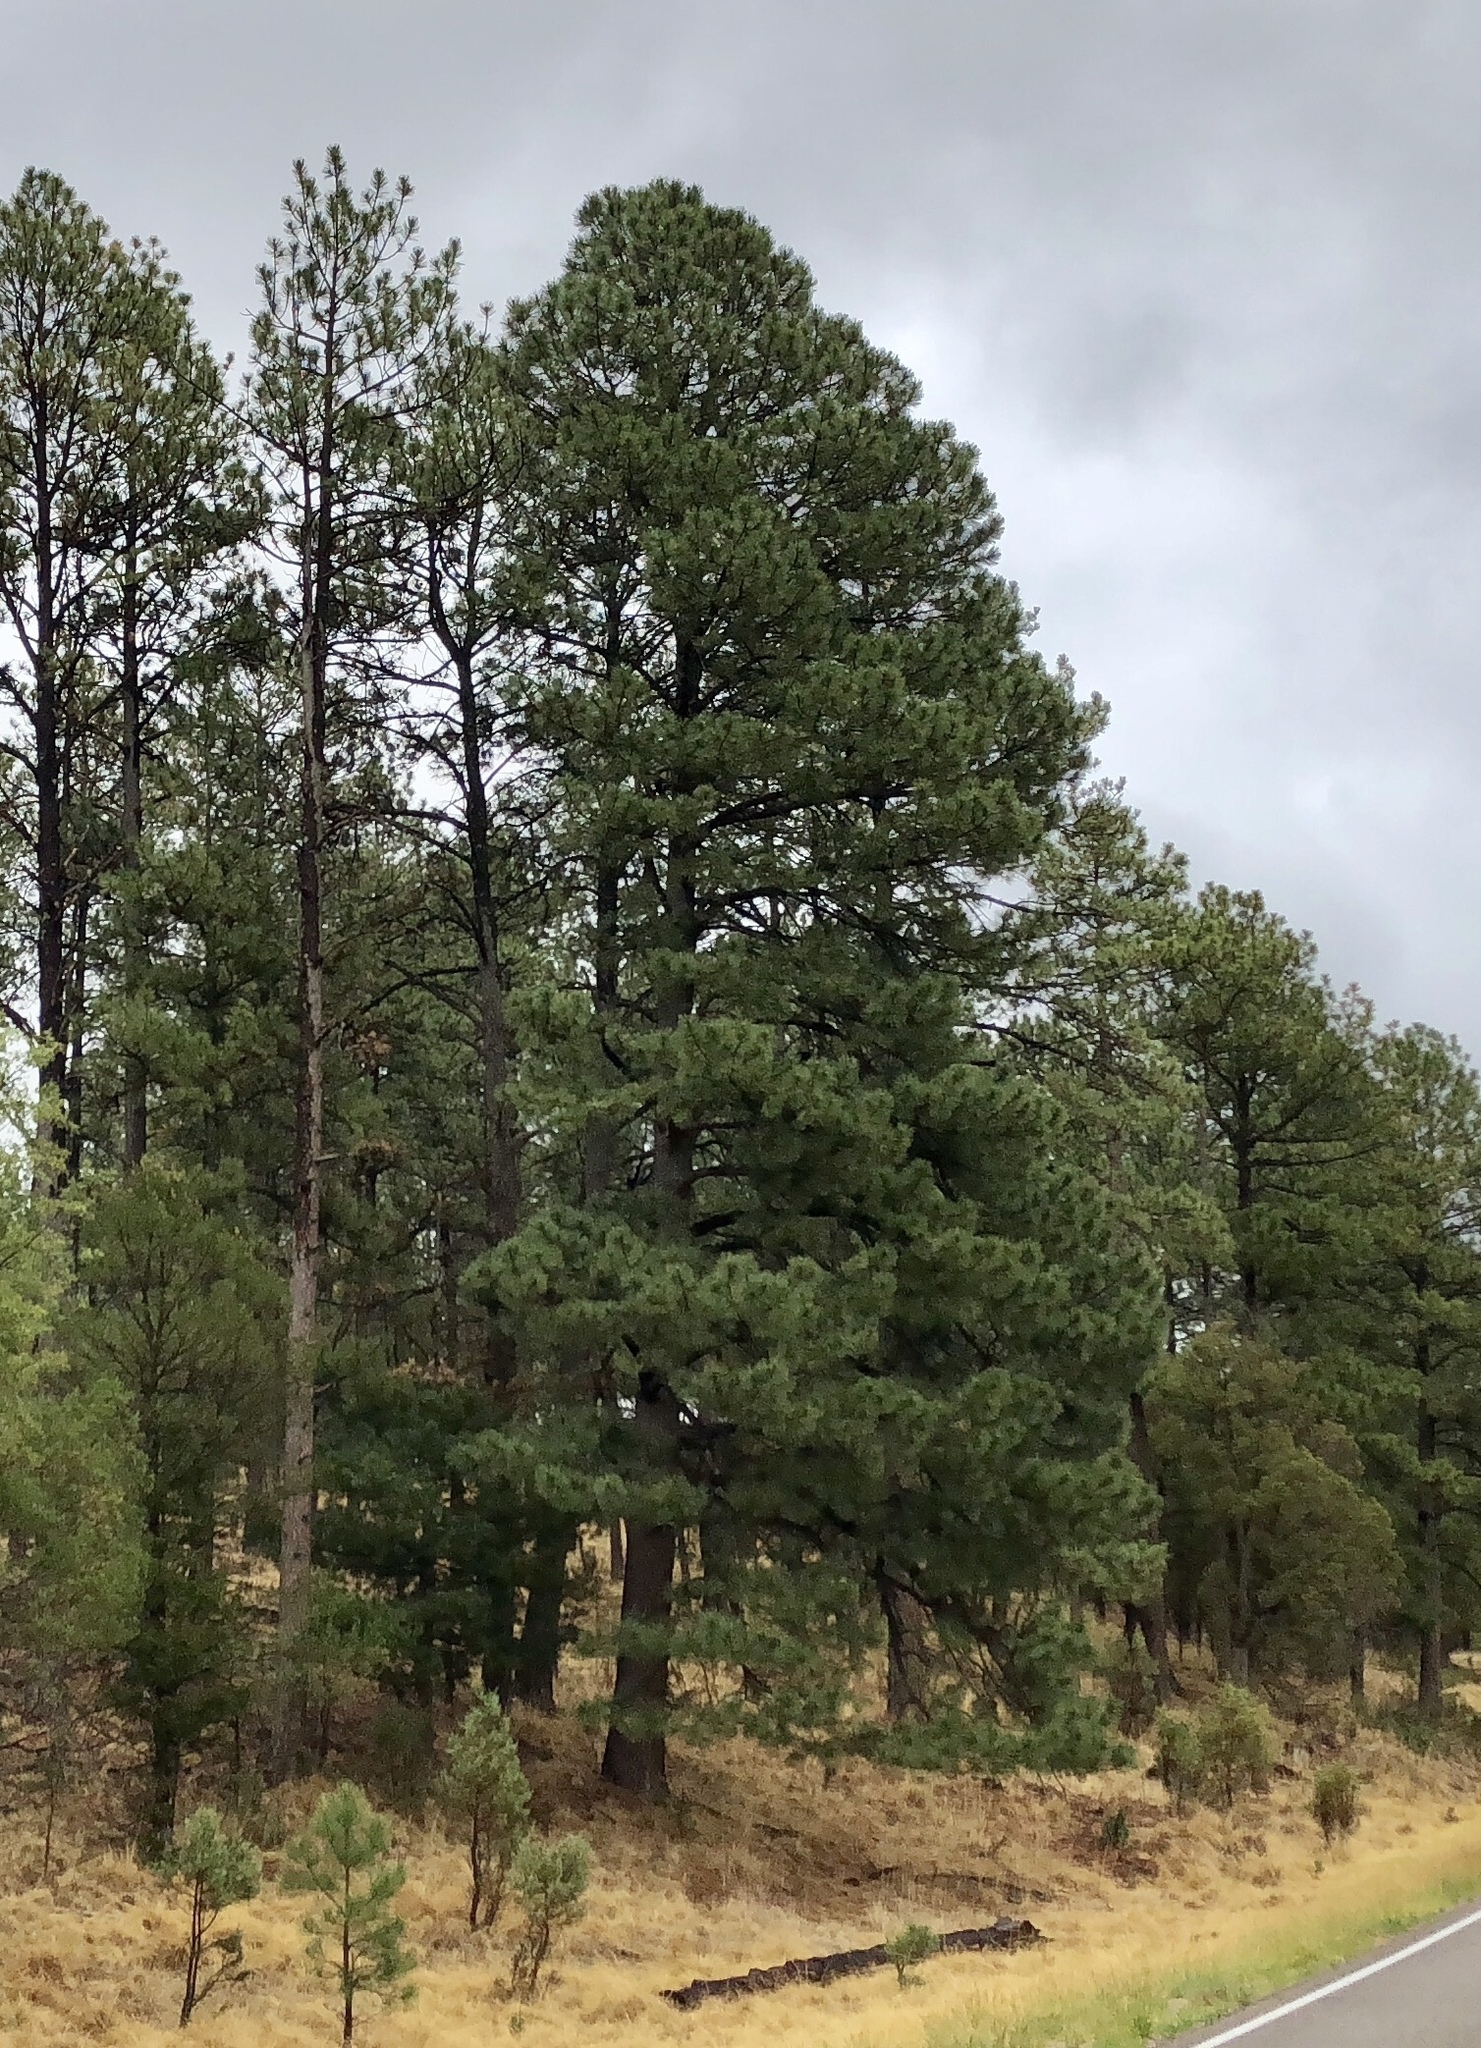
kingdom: Plantae
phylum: Tracheophyta
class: Pinopsida
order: Pinales
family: Pinaceae
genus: Pinus
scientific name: Pinus ponderosa
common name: Western yellow-pine
